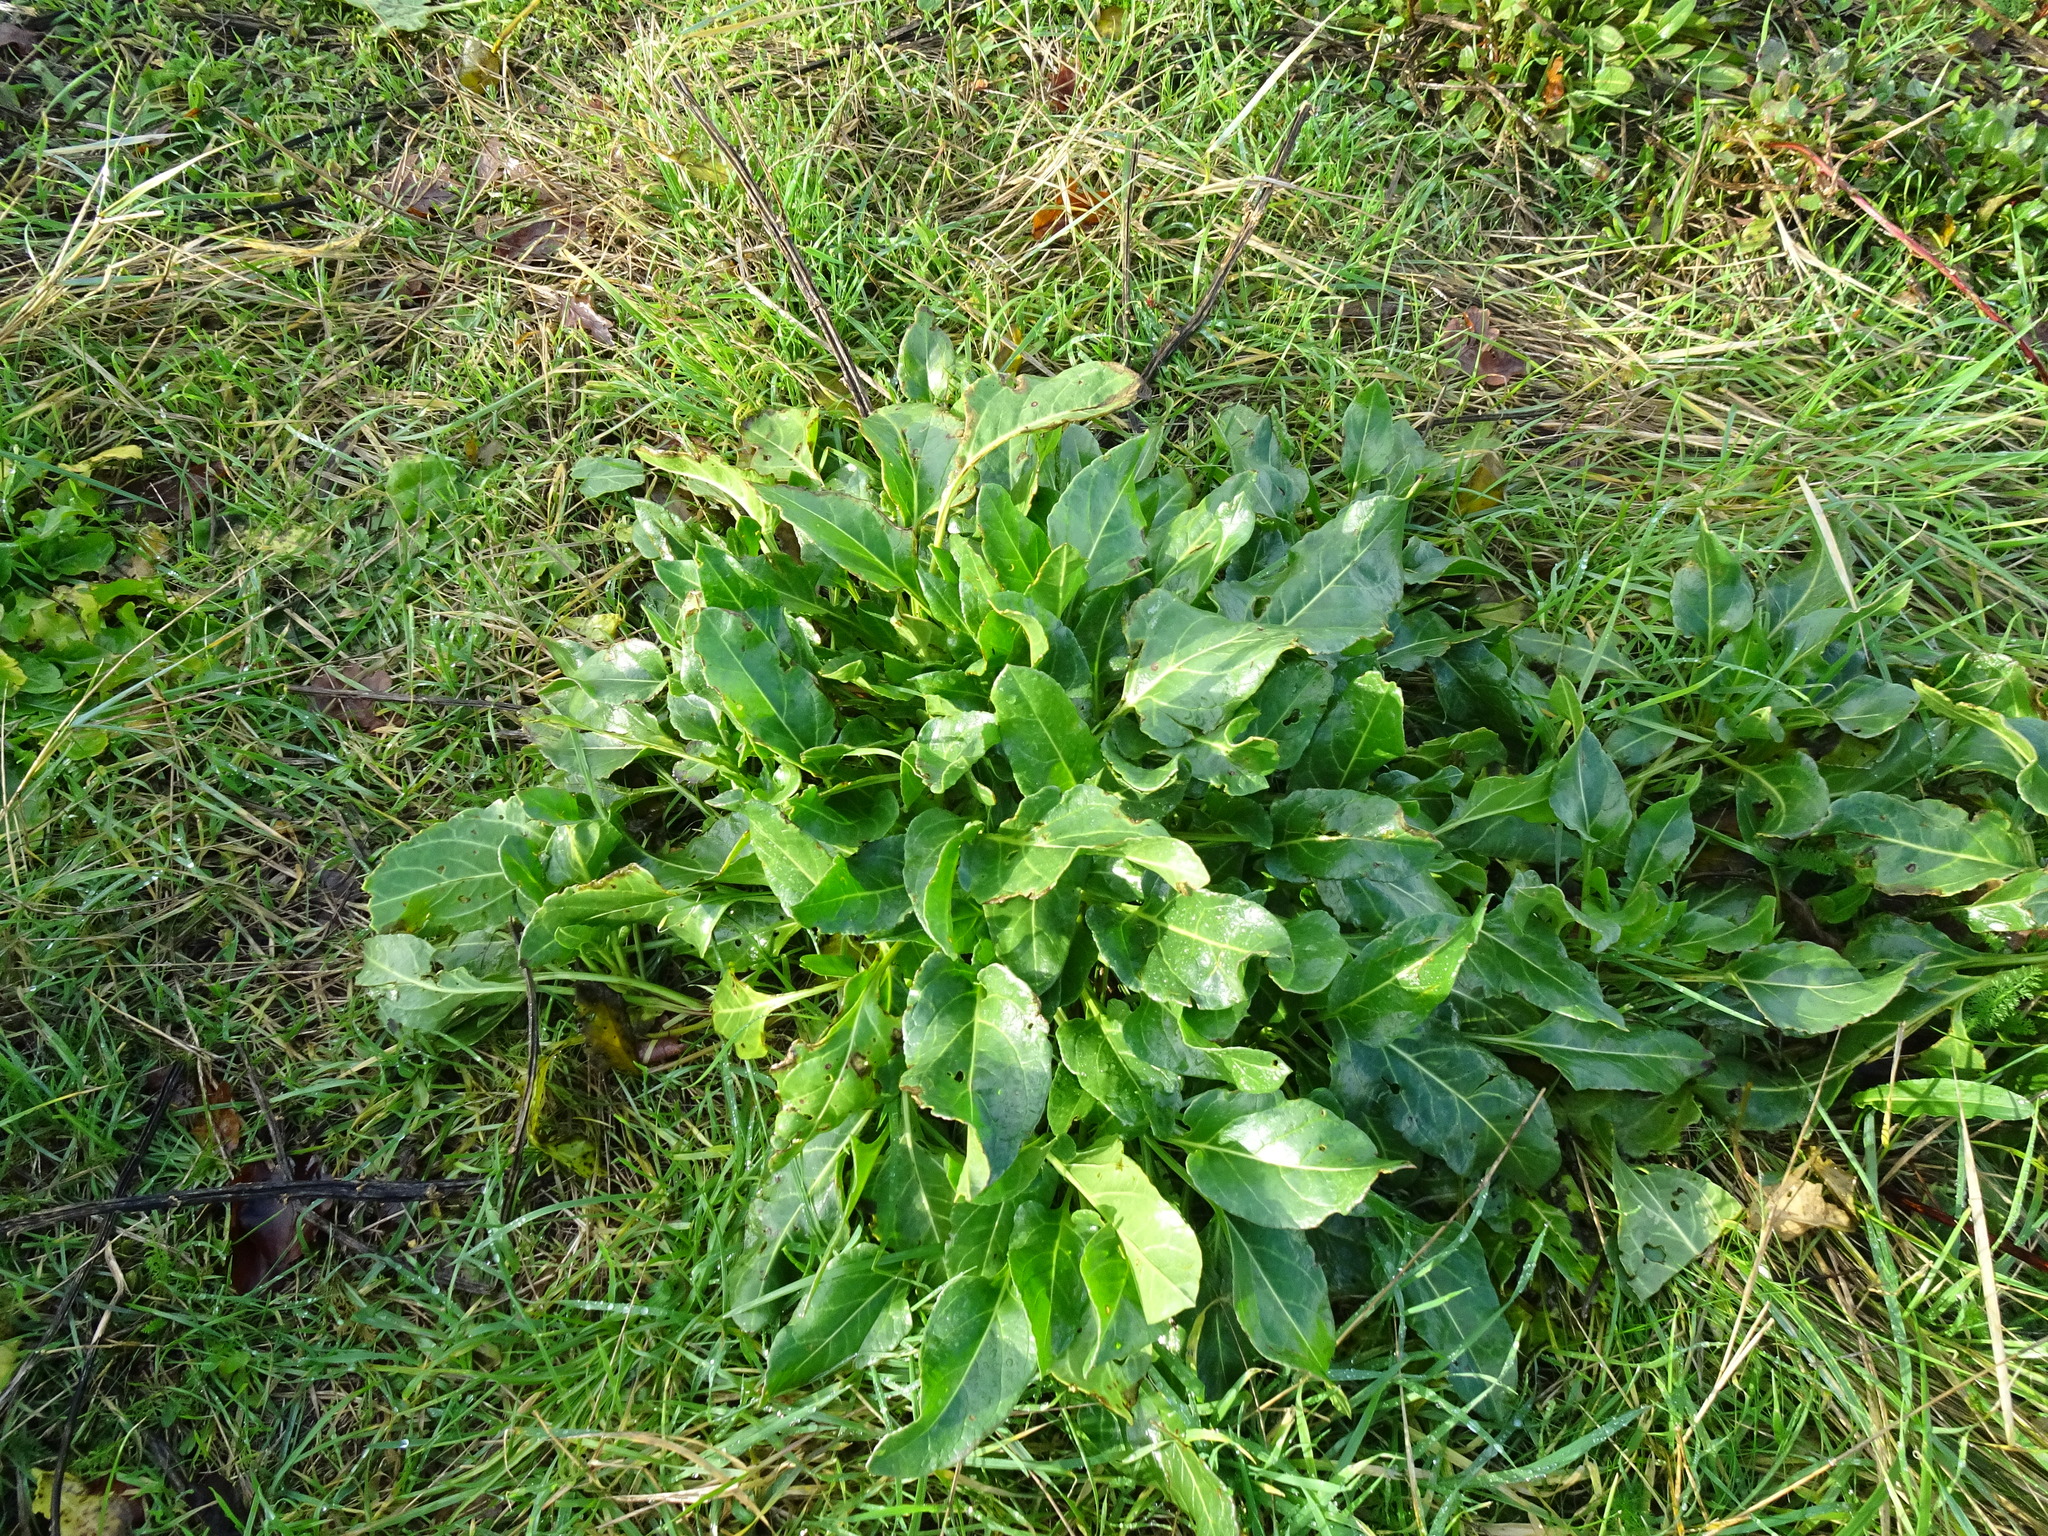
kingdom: Plantae
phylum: Tracheophyta
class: Magnoliopsida
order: Caryophyllales
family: Amaranthaceae
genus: Beta
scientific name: Beta vulgaris
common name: Beet
